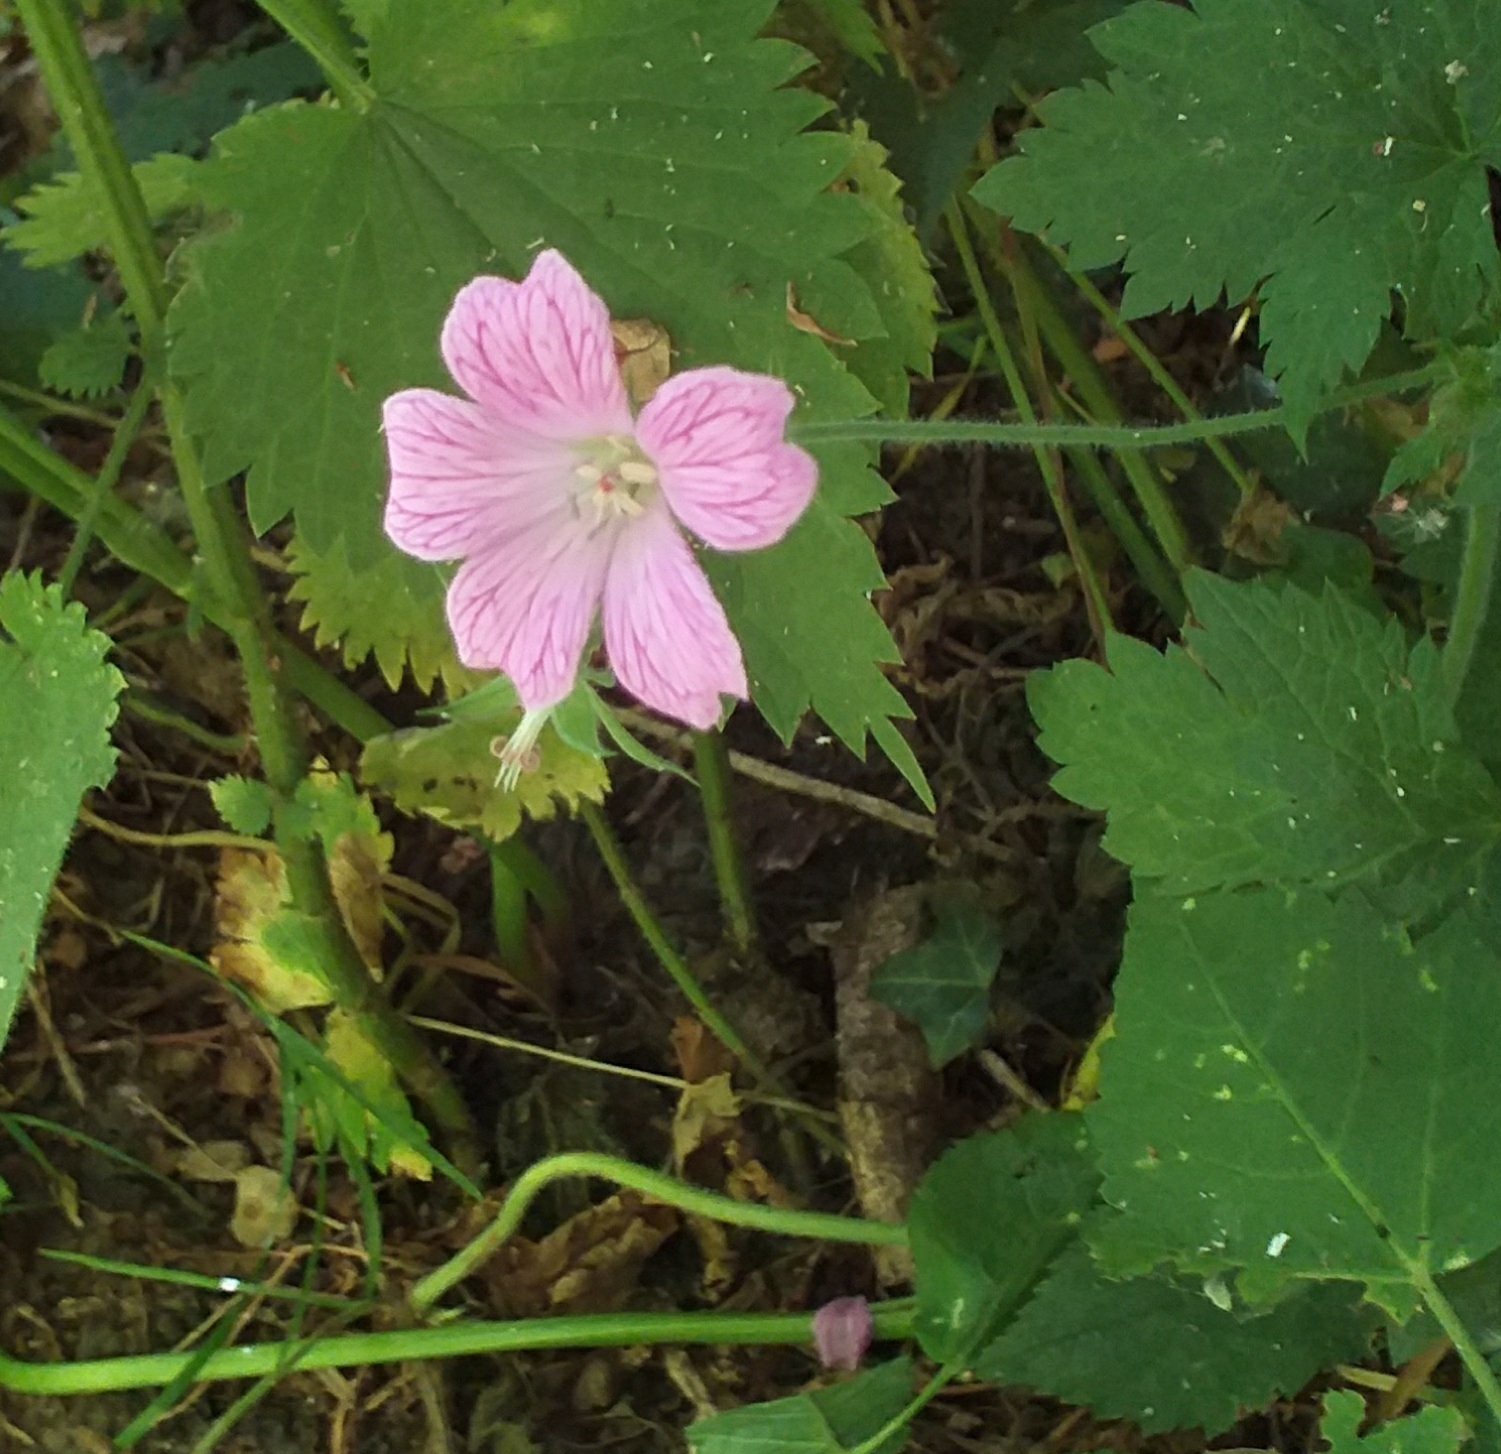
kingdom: Plantae
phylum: Tracheophyta
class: Magnoliopsida
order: Geraniales
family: Geraniaceae
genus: Geranium
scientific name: Geranium oxonianum
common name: Druce's crane's-bill
